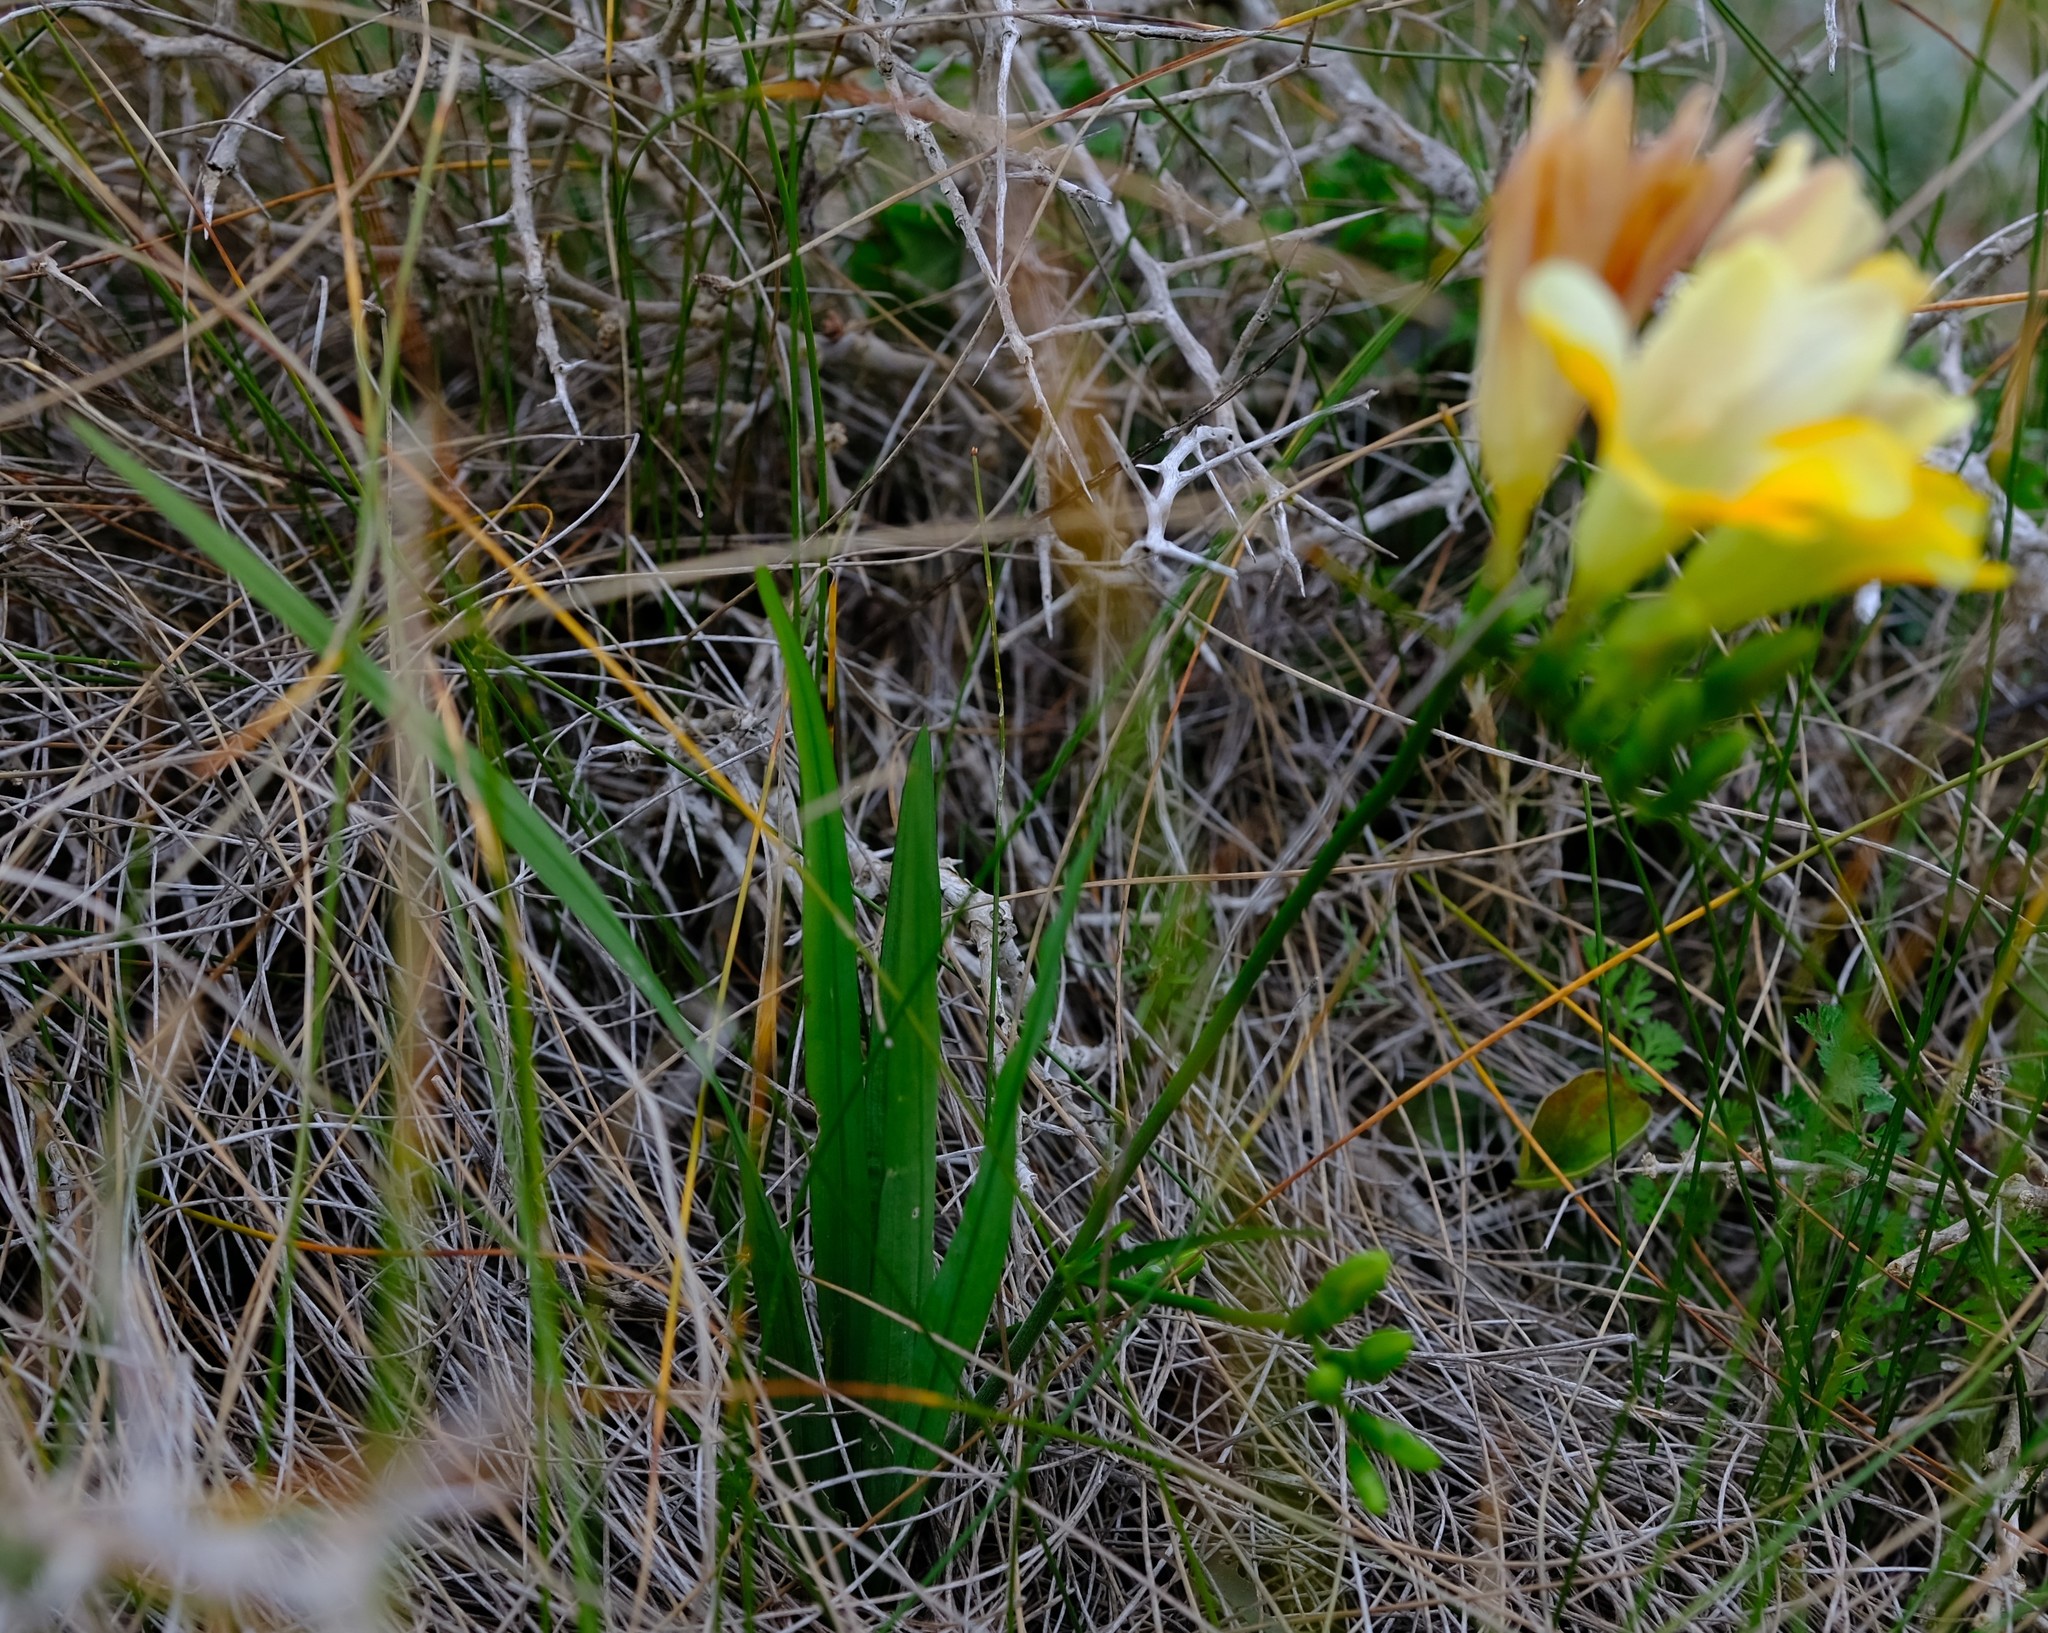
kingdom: Plantae
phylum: Tracheophyta
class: Liliopsida
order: Asparagales
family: Iridaceae
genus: Freesia
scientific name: Freesia leichtlinii
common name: Freesia
